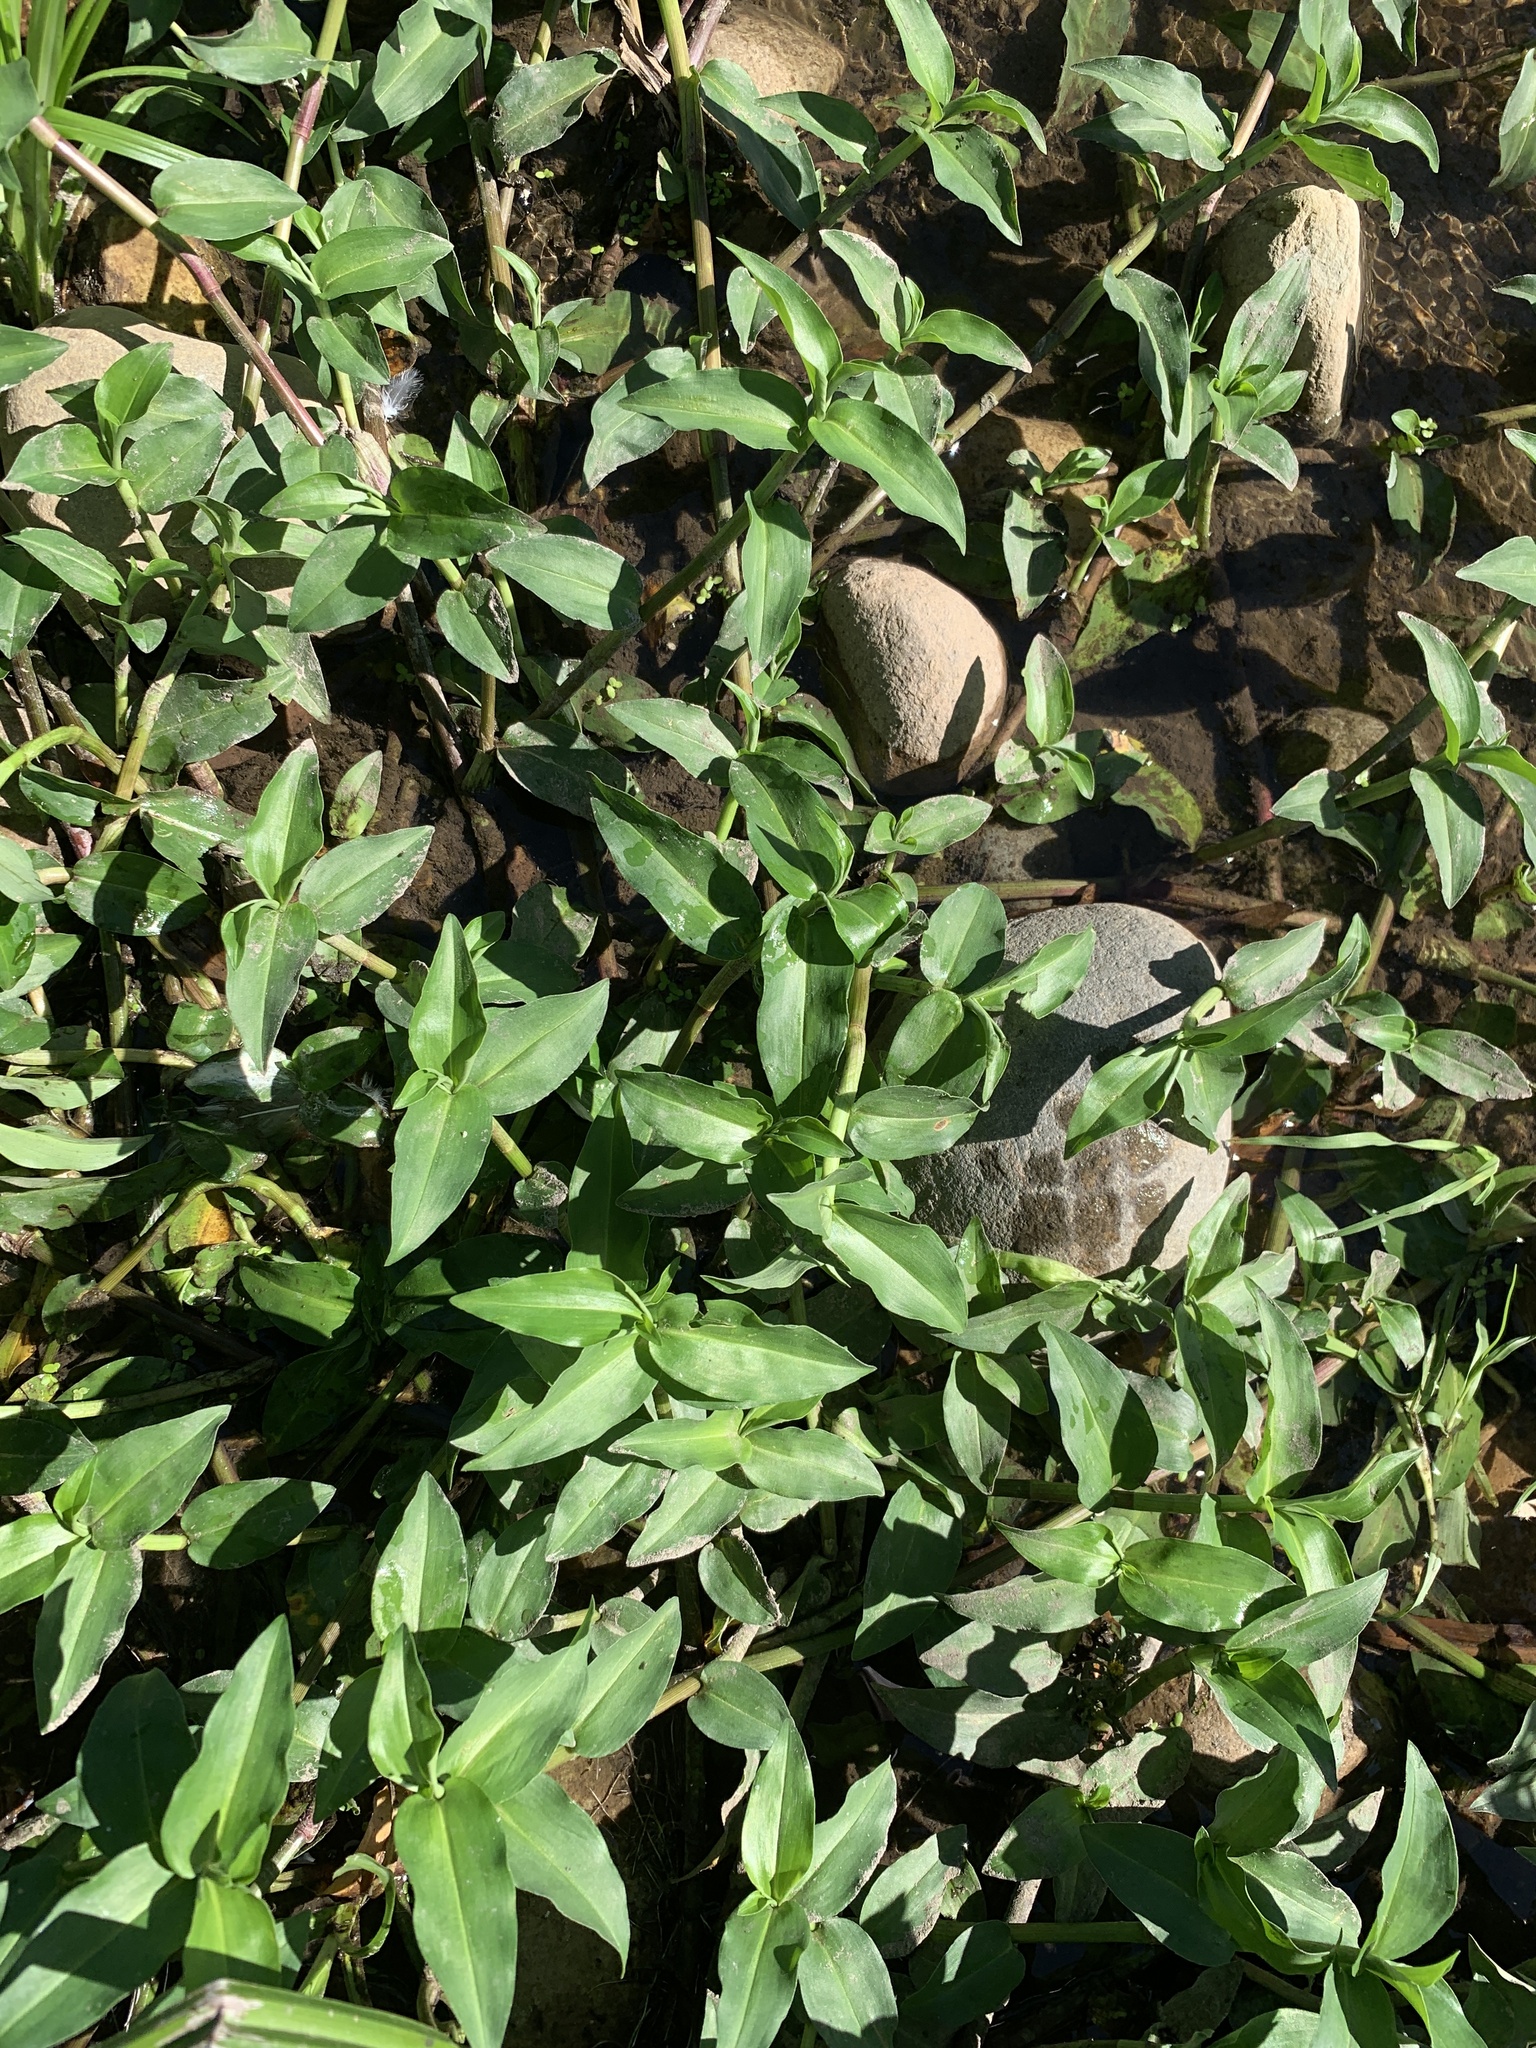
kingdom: Plantae
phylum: Tracheophyta
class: Liliopsida
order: Commelinales
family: Commelinaceae
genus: Commelina
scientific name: Commelina diffusa
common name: Climbing dayflower
